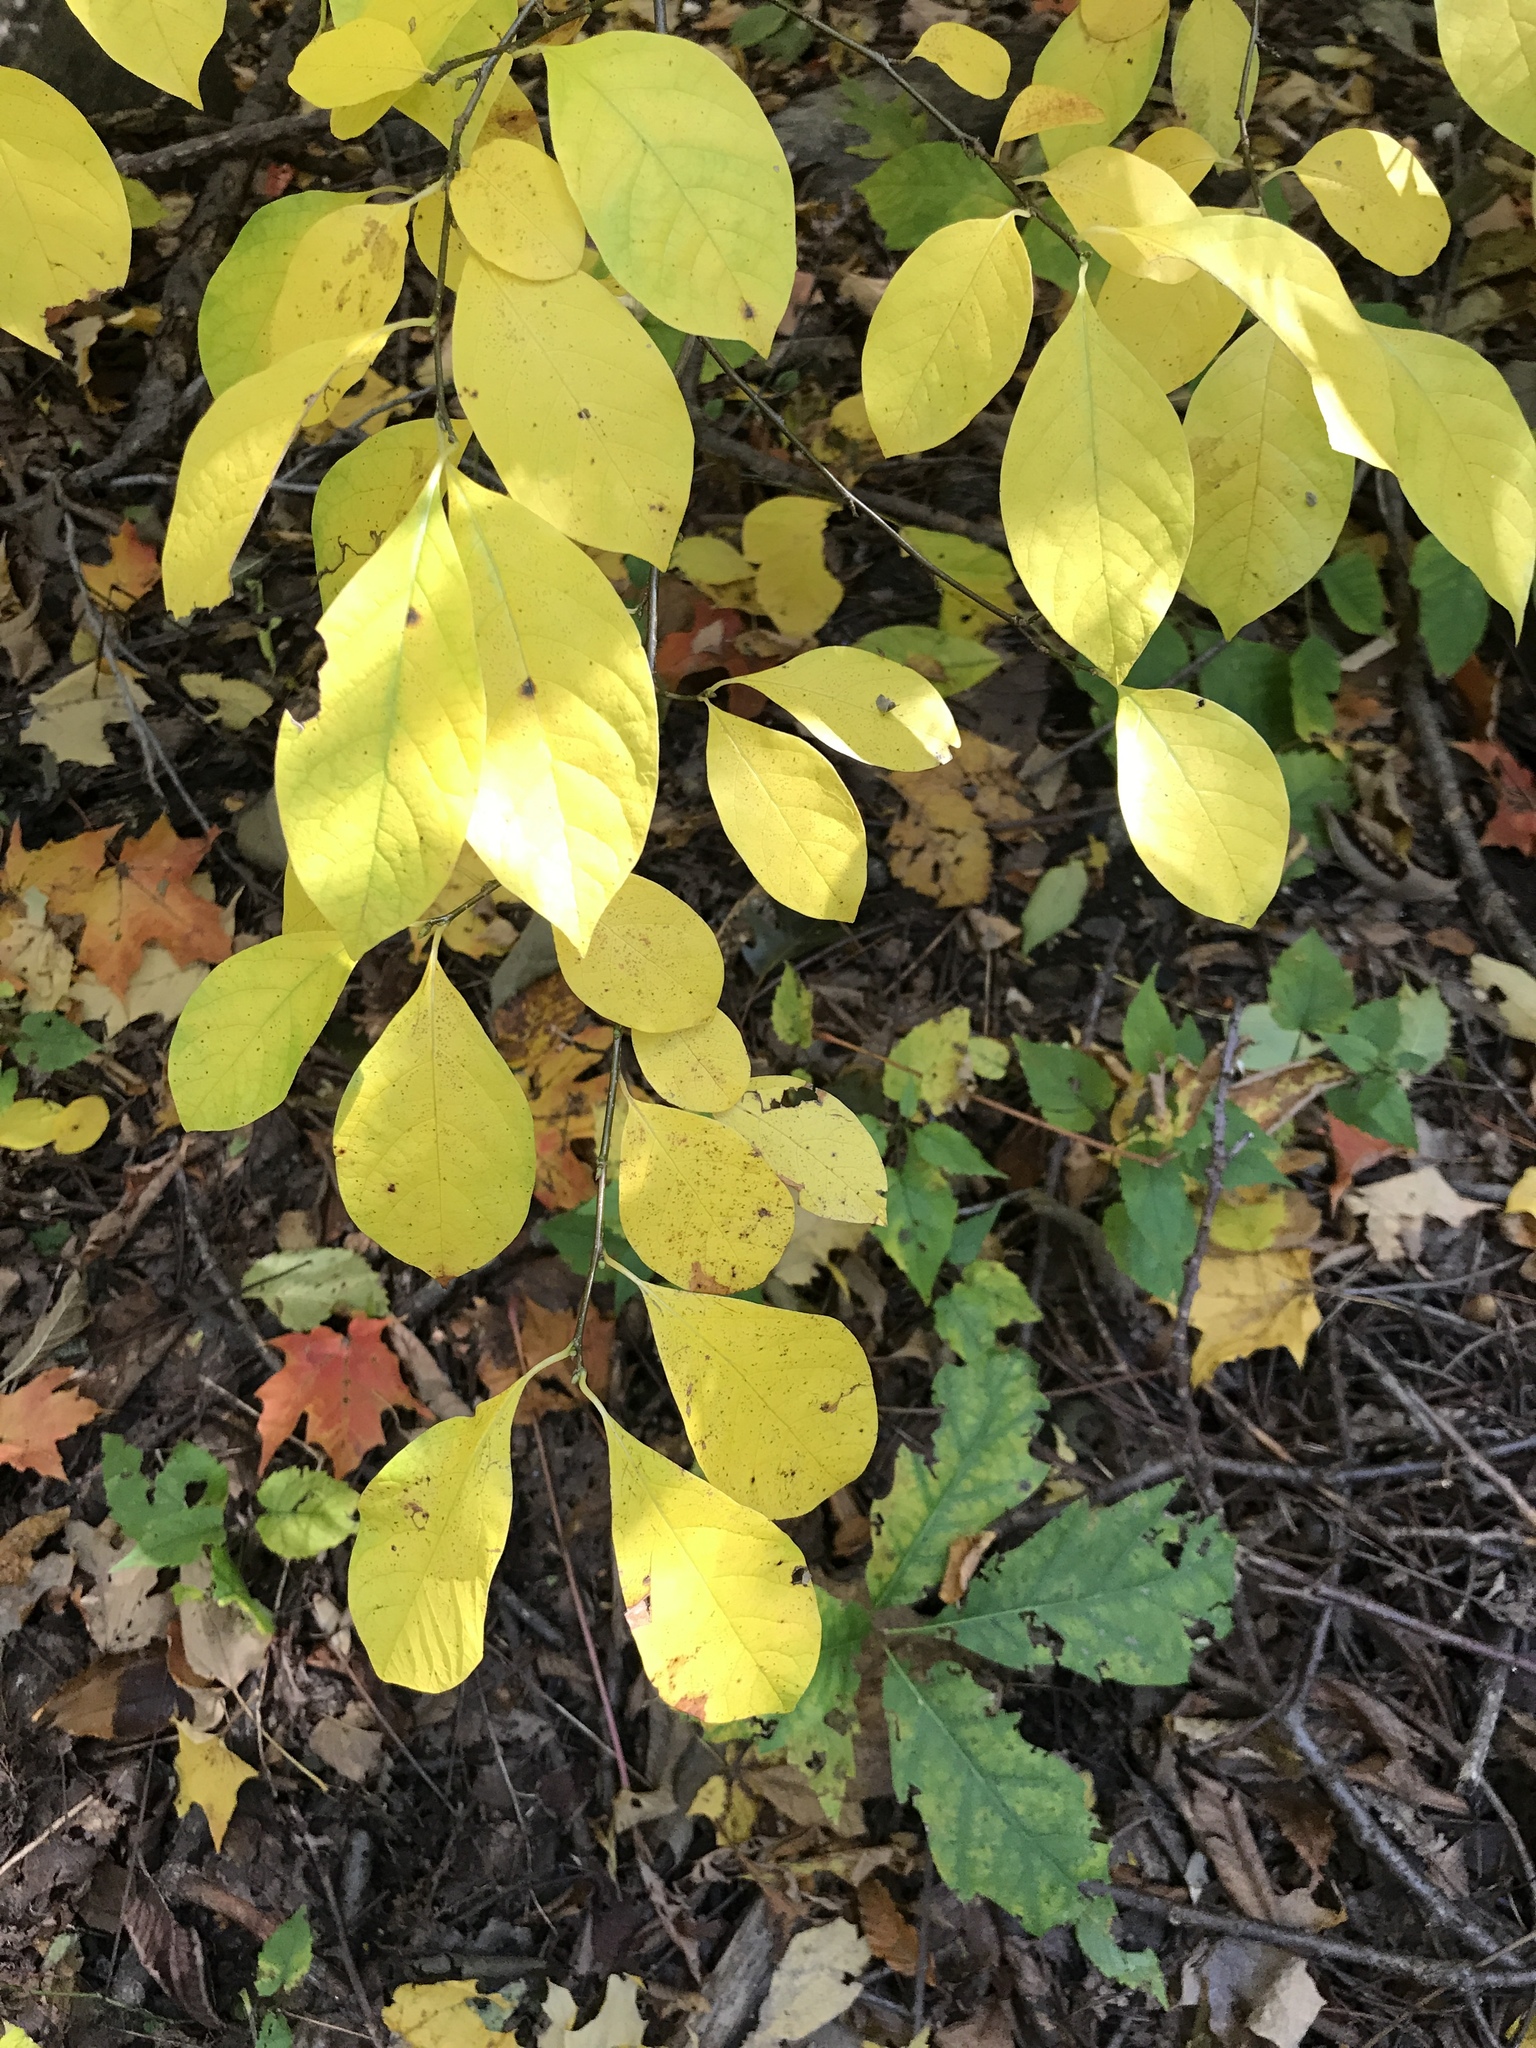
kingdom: Plantae
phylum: Tracheophyta
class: Magnoliopsida
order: Laurales
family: Lauraceae
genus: Lindera
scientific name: Lindera benzoin
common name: Spicebush
